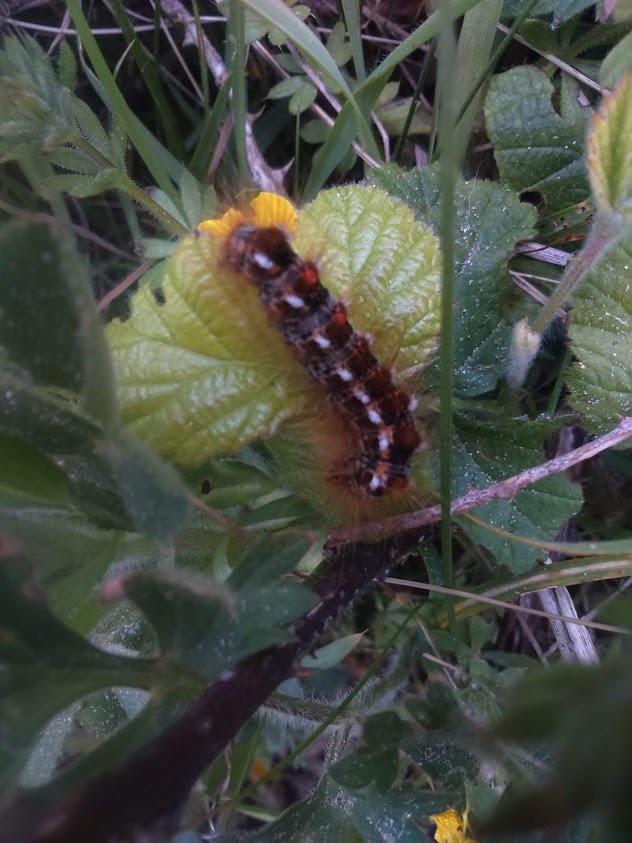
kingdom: Animalia
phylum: Arthropoda
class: Insecta
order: Lepidoptera
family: Erebidae
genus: Euproctis
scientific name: Euproctis chrysorrhoea
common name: Brown-tail
